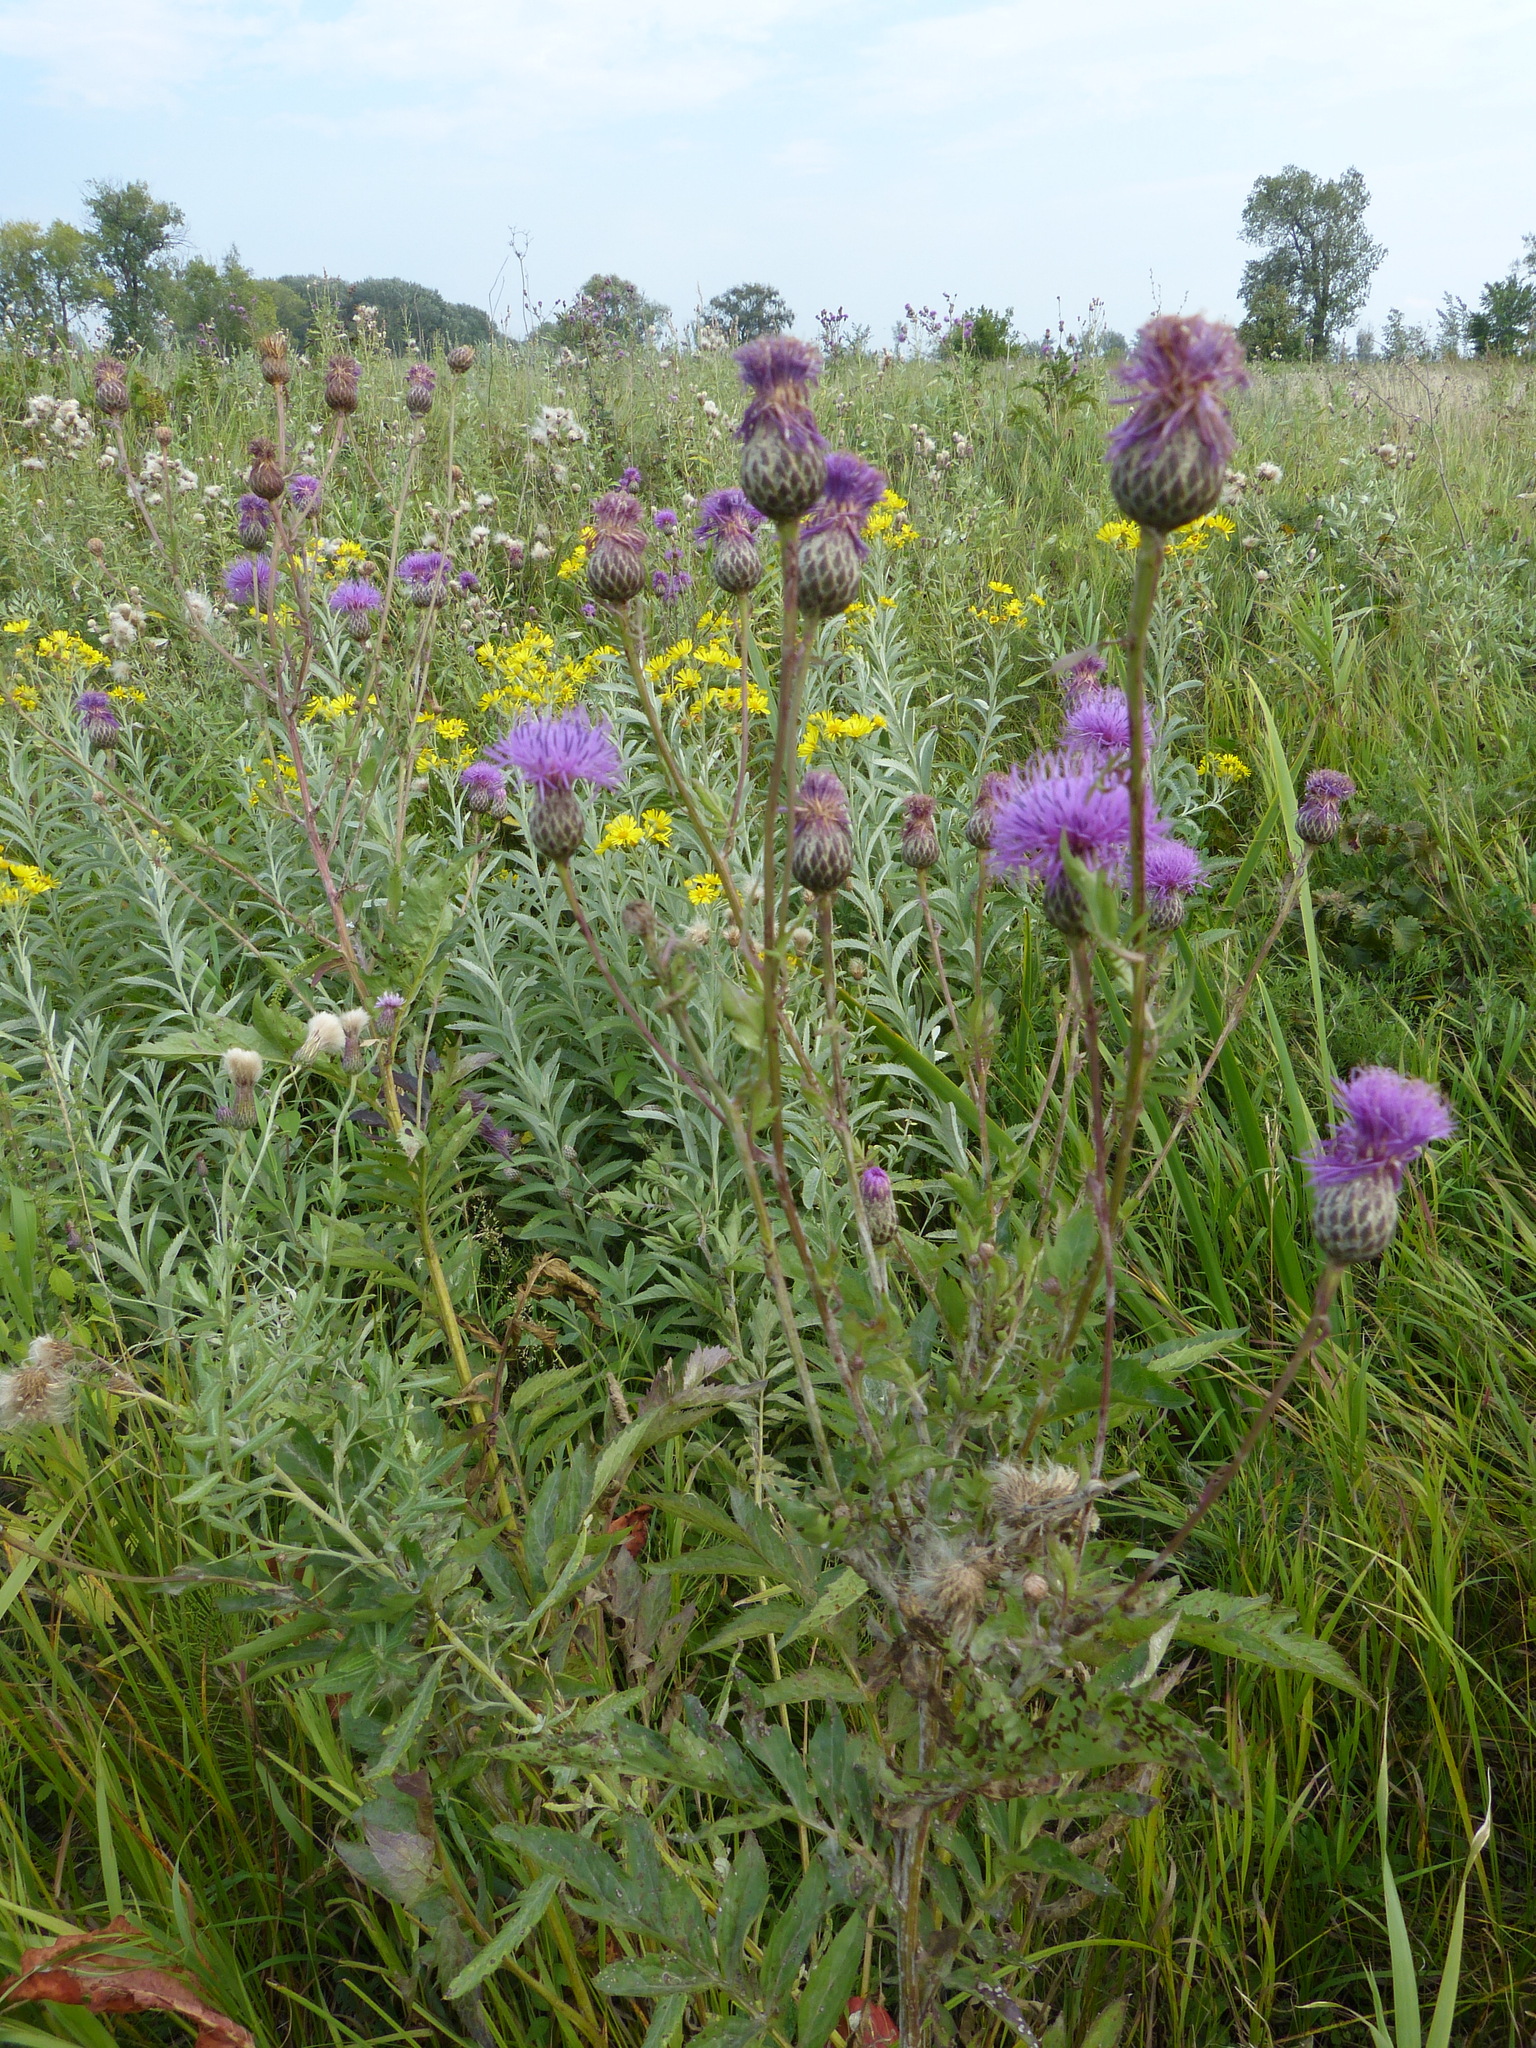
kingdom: Plantae
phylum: Tracheophyta
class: Magnoliopsida
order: Asterales
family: Asteraceae
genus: Serratula
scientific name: Serratula coronata
